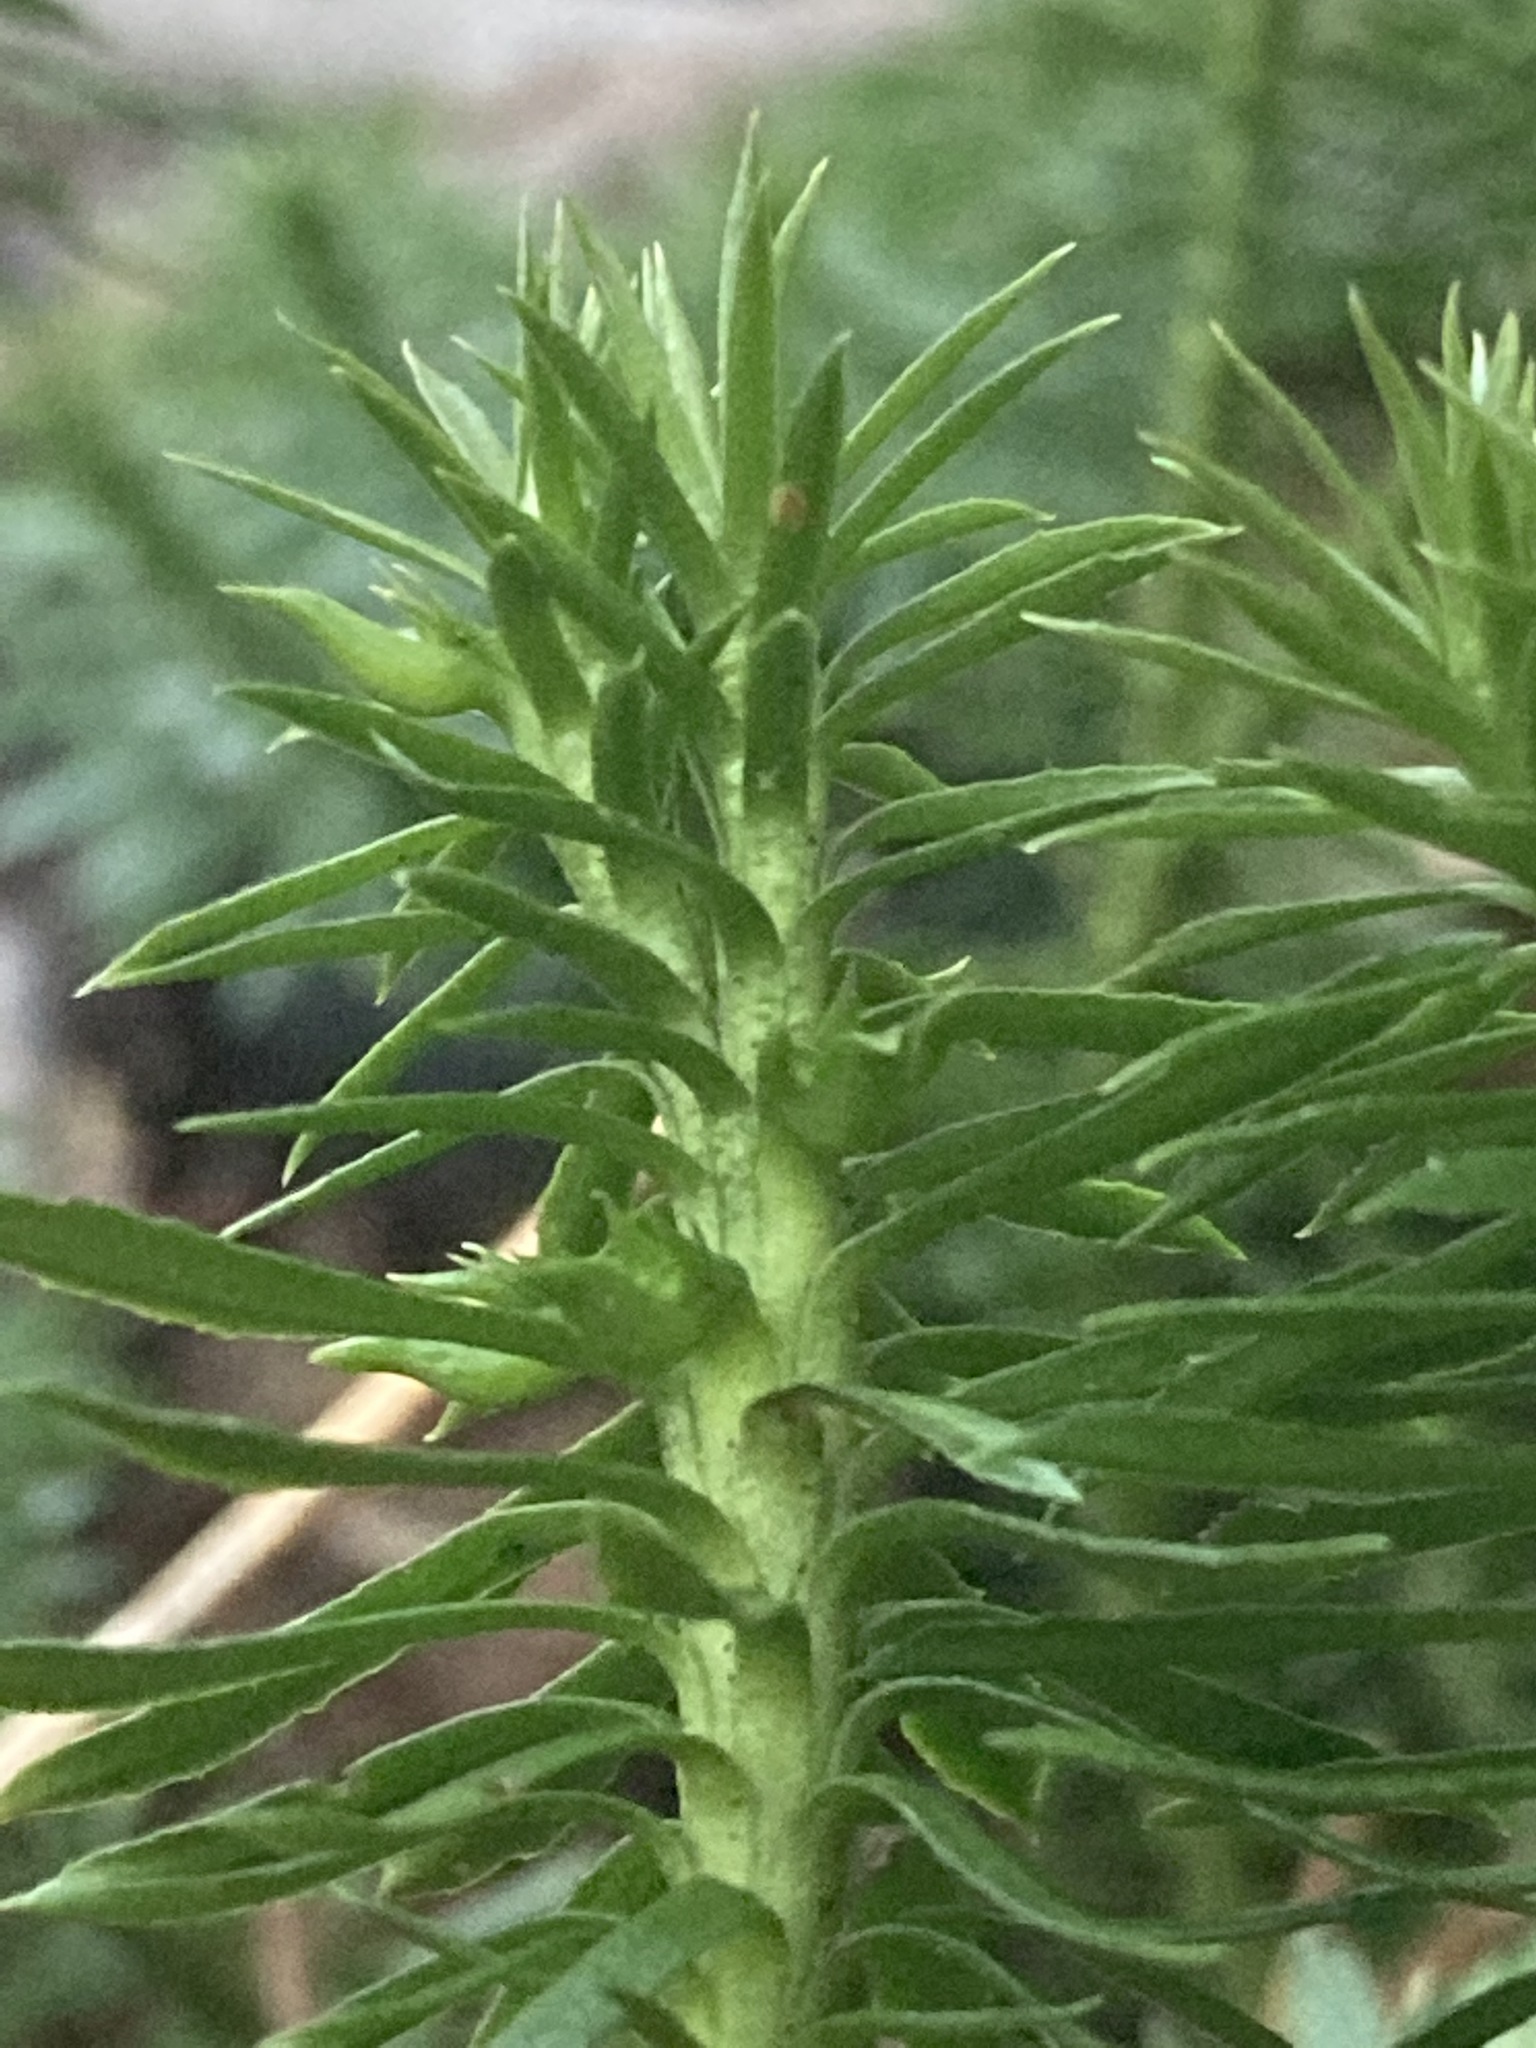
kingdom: Plantae
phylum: Tracheophyta
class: Lycopodiopsida
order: Lycopodiales
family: Lycopodiaceae
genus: Huperzia
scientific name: Huperzia lucidula
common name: Shining clubmoss
